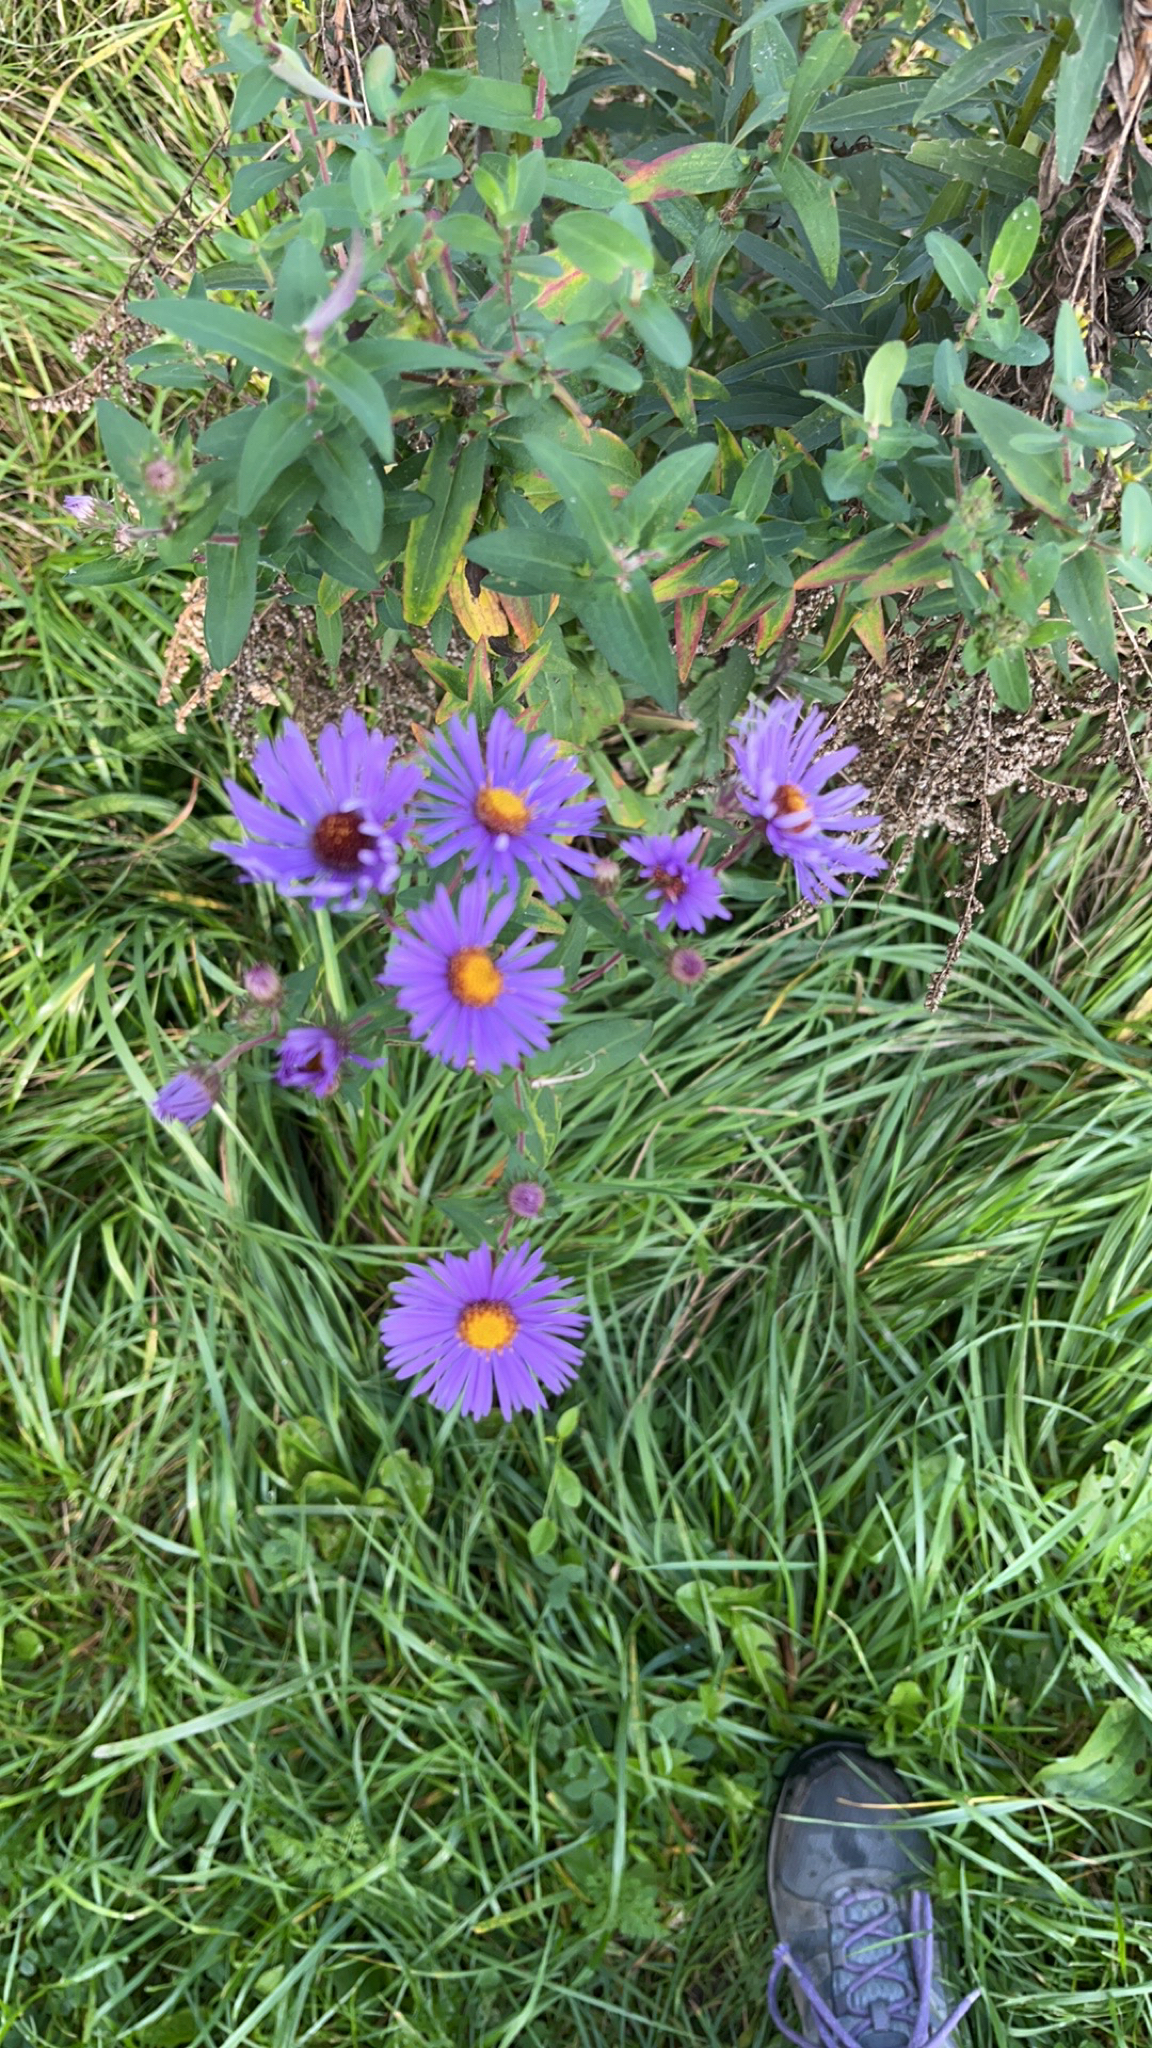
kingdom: Plantae
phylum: Tracheophyta
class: Magnoliopsida
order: Asterales
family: Asteraceae
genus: Symphyotrichum
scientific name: Symphyotrichum novae-angliae
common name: Michaelmas daisy
